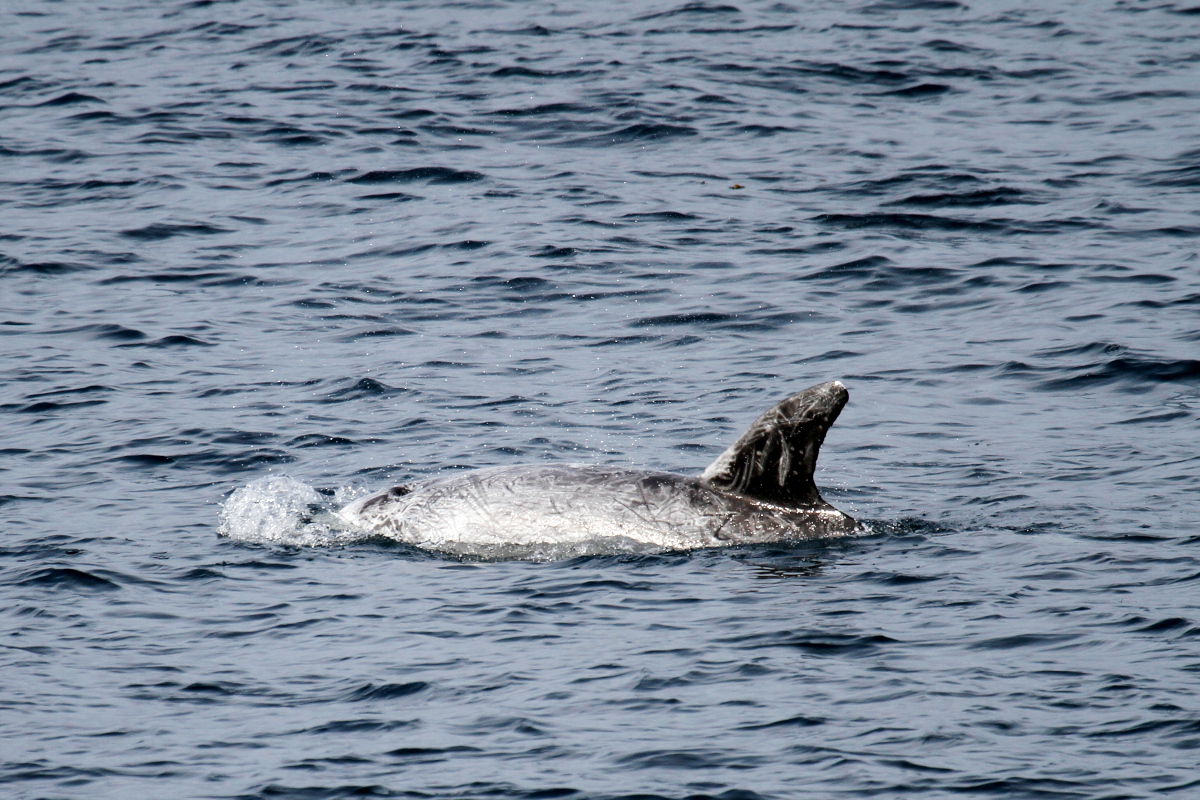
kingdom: Animalia
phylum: Chordata
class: Mammalia
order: Cetacea
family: Delphinidae
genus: Grampus
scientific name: Grampus griseus
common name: Risso's dolphin
